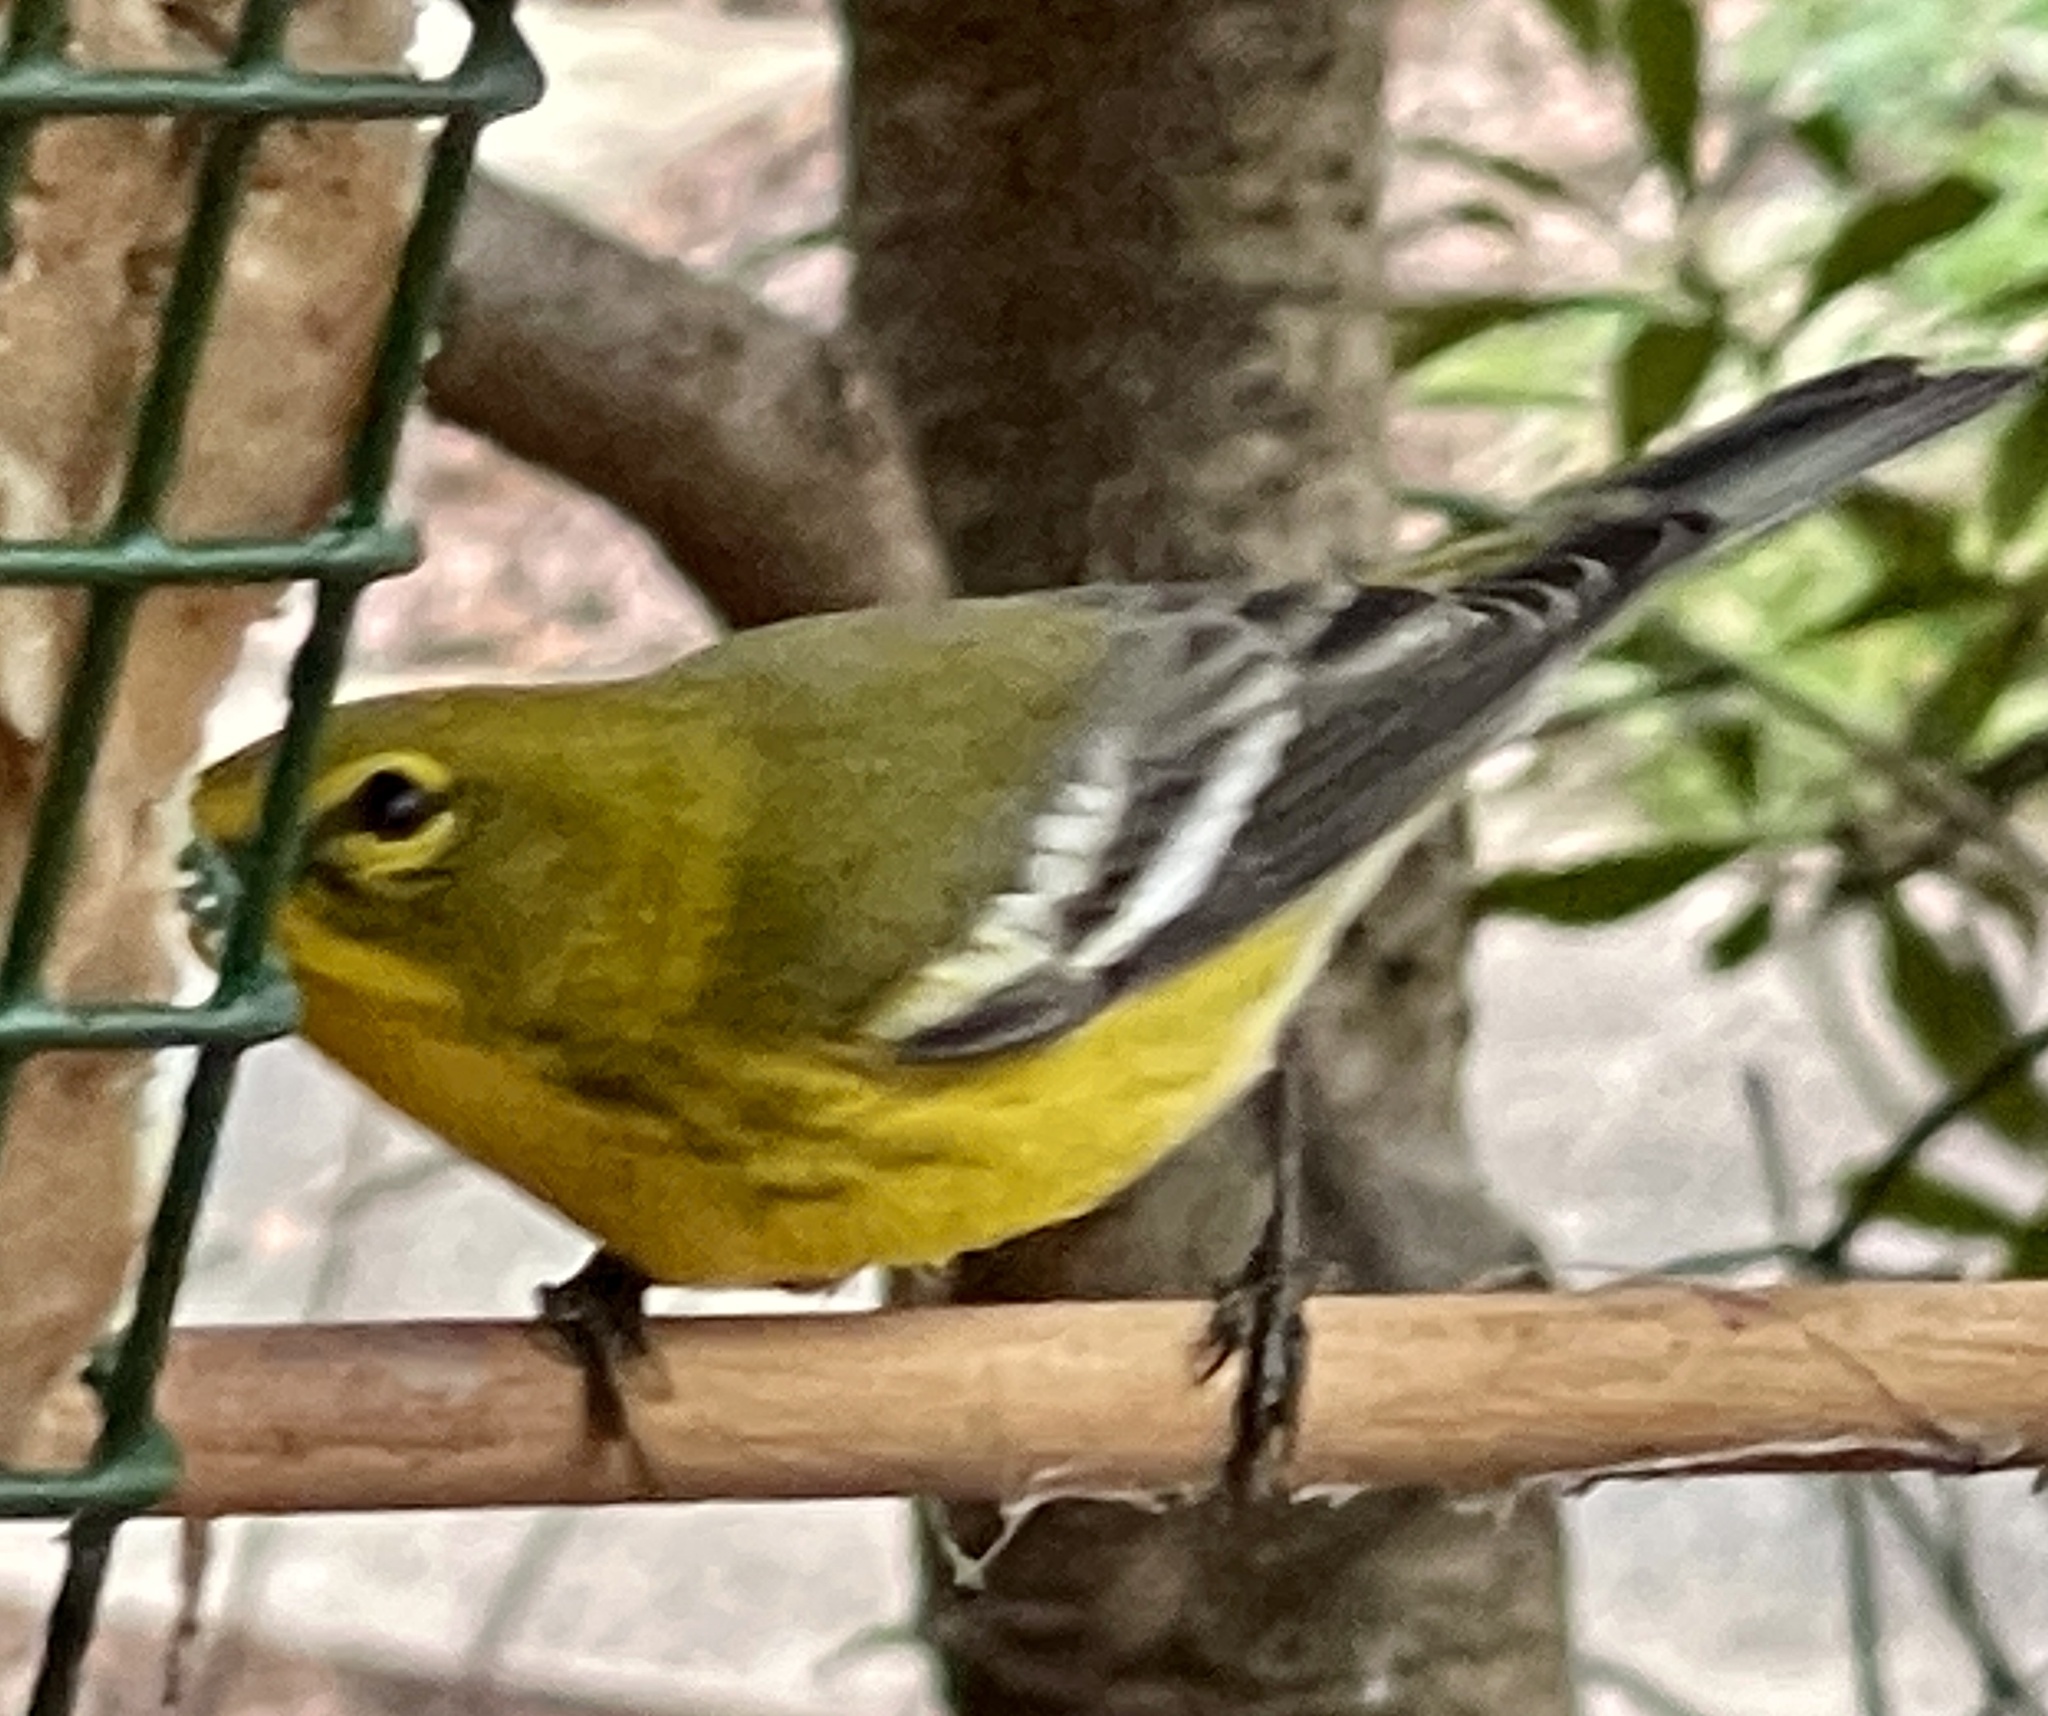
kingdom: Animalia
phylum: Chordata
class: Aves
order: Passeriformes
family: Parulidae
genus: Setophaga
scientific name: Setophaga pinus
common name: Pine warbler
